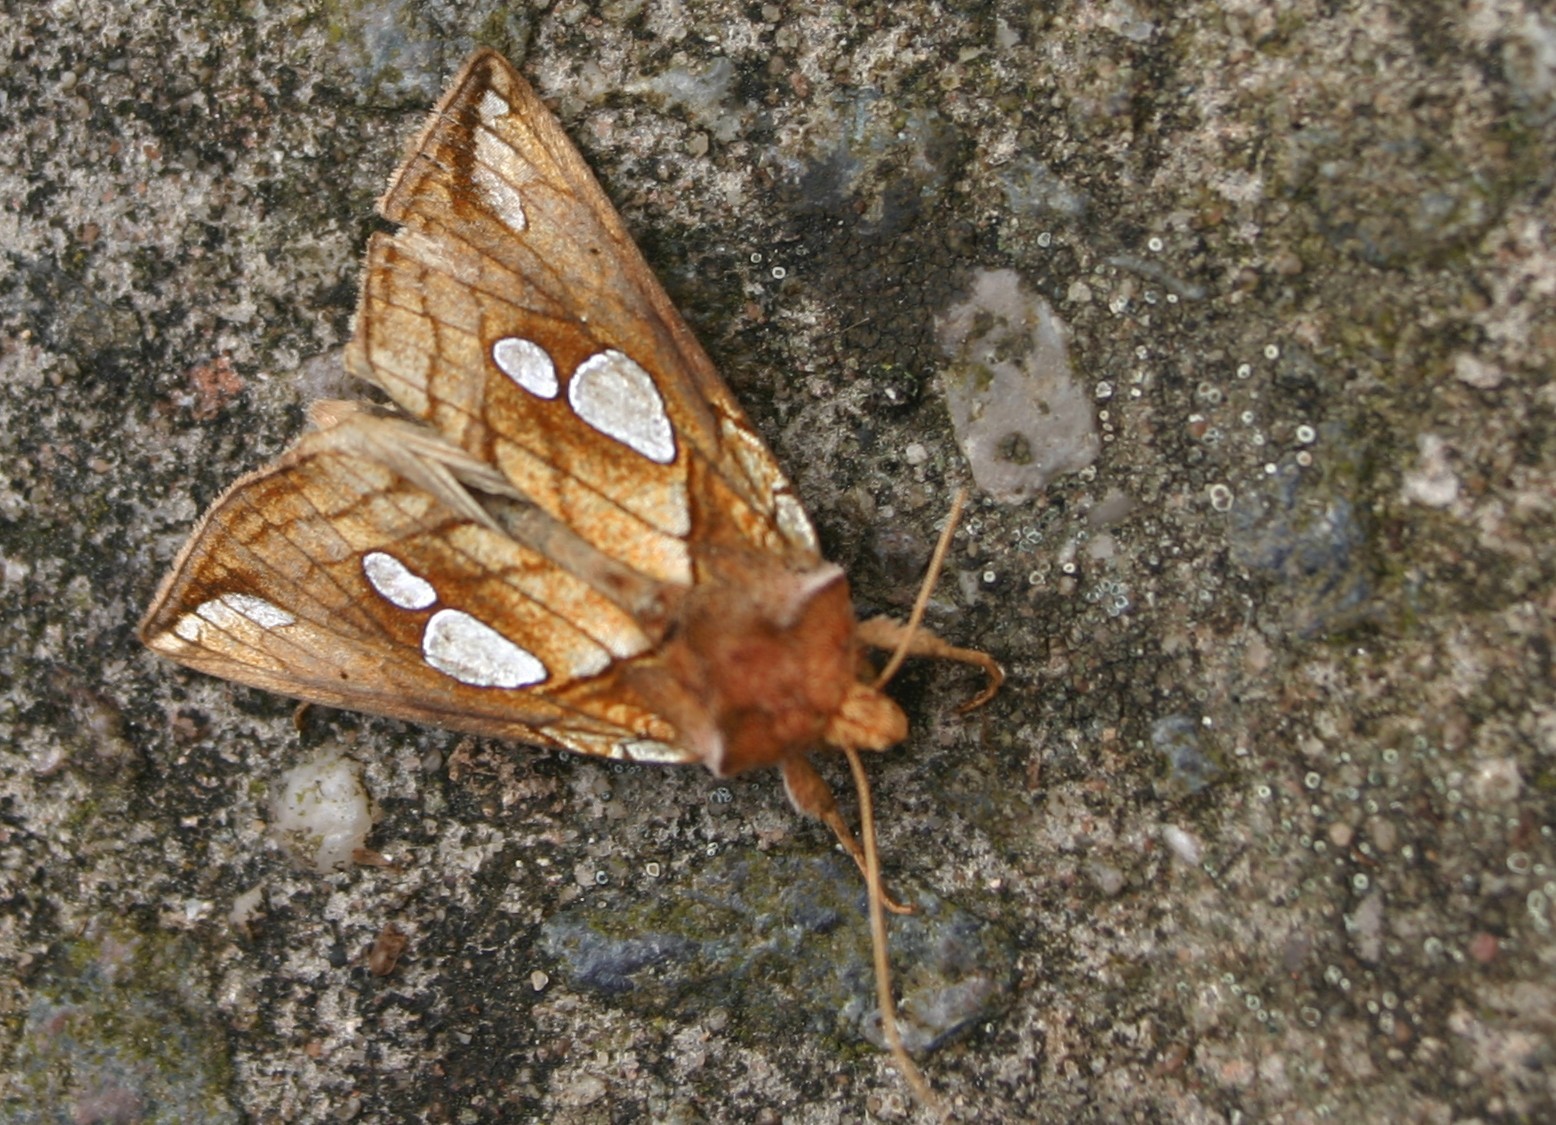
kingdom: Animalia
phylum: Arthropoda
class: Insecta
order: Lepidoptera
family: Noctuidae
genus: Plusia
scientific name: Plusia putnami
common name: Lempke's gold spot
